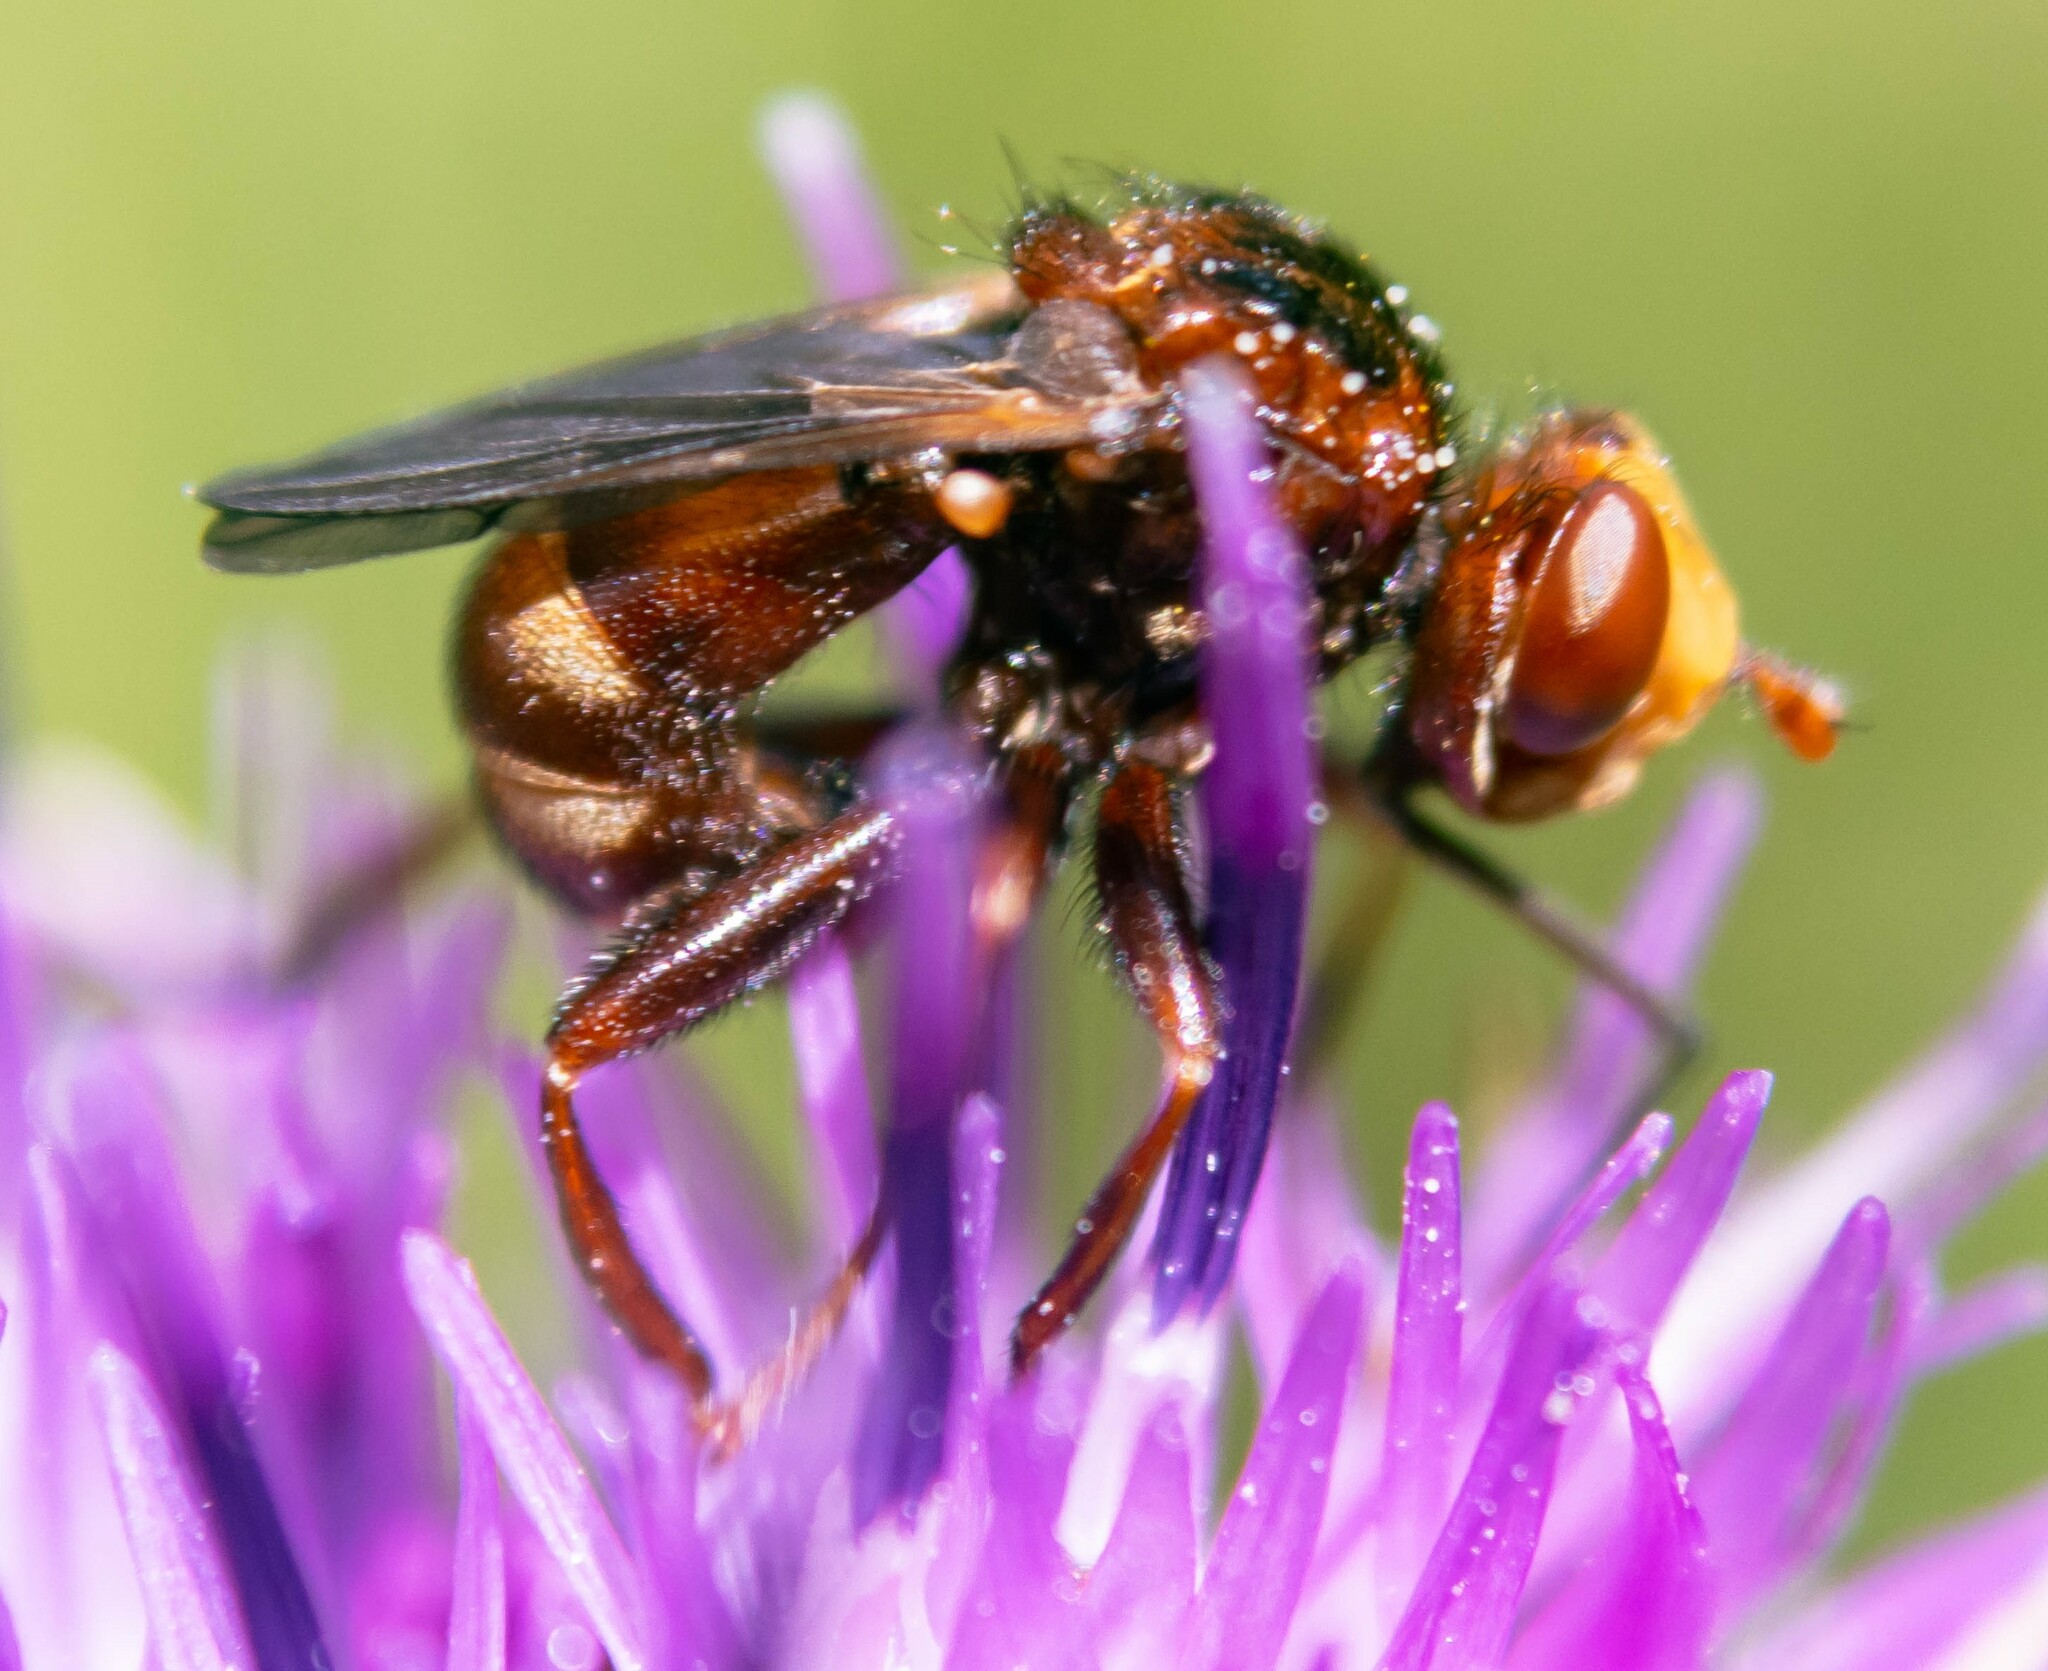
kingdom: Animalia
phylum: Arthropoda
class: Insecta
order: Diptera
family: Conopidae
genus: Sicus
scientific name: Sicus ferrugineus
